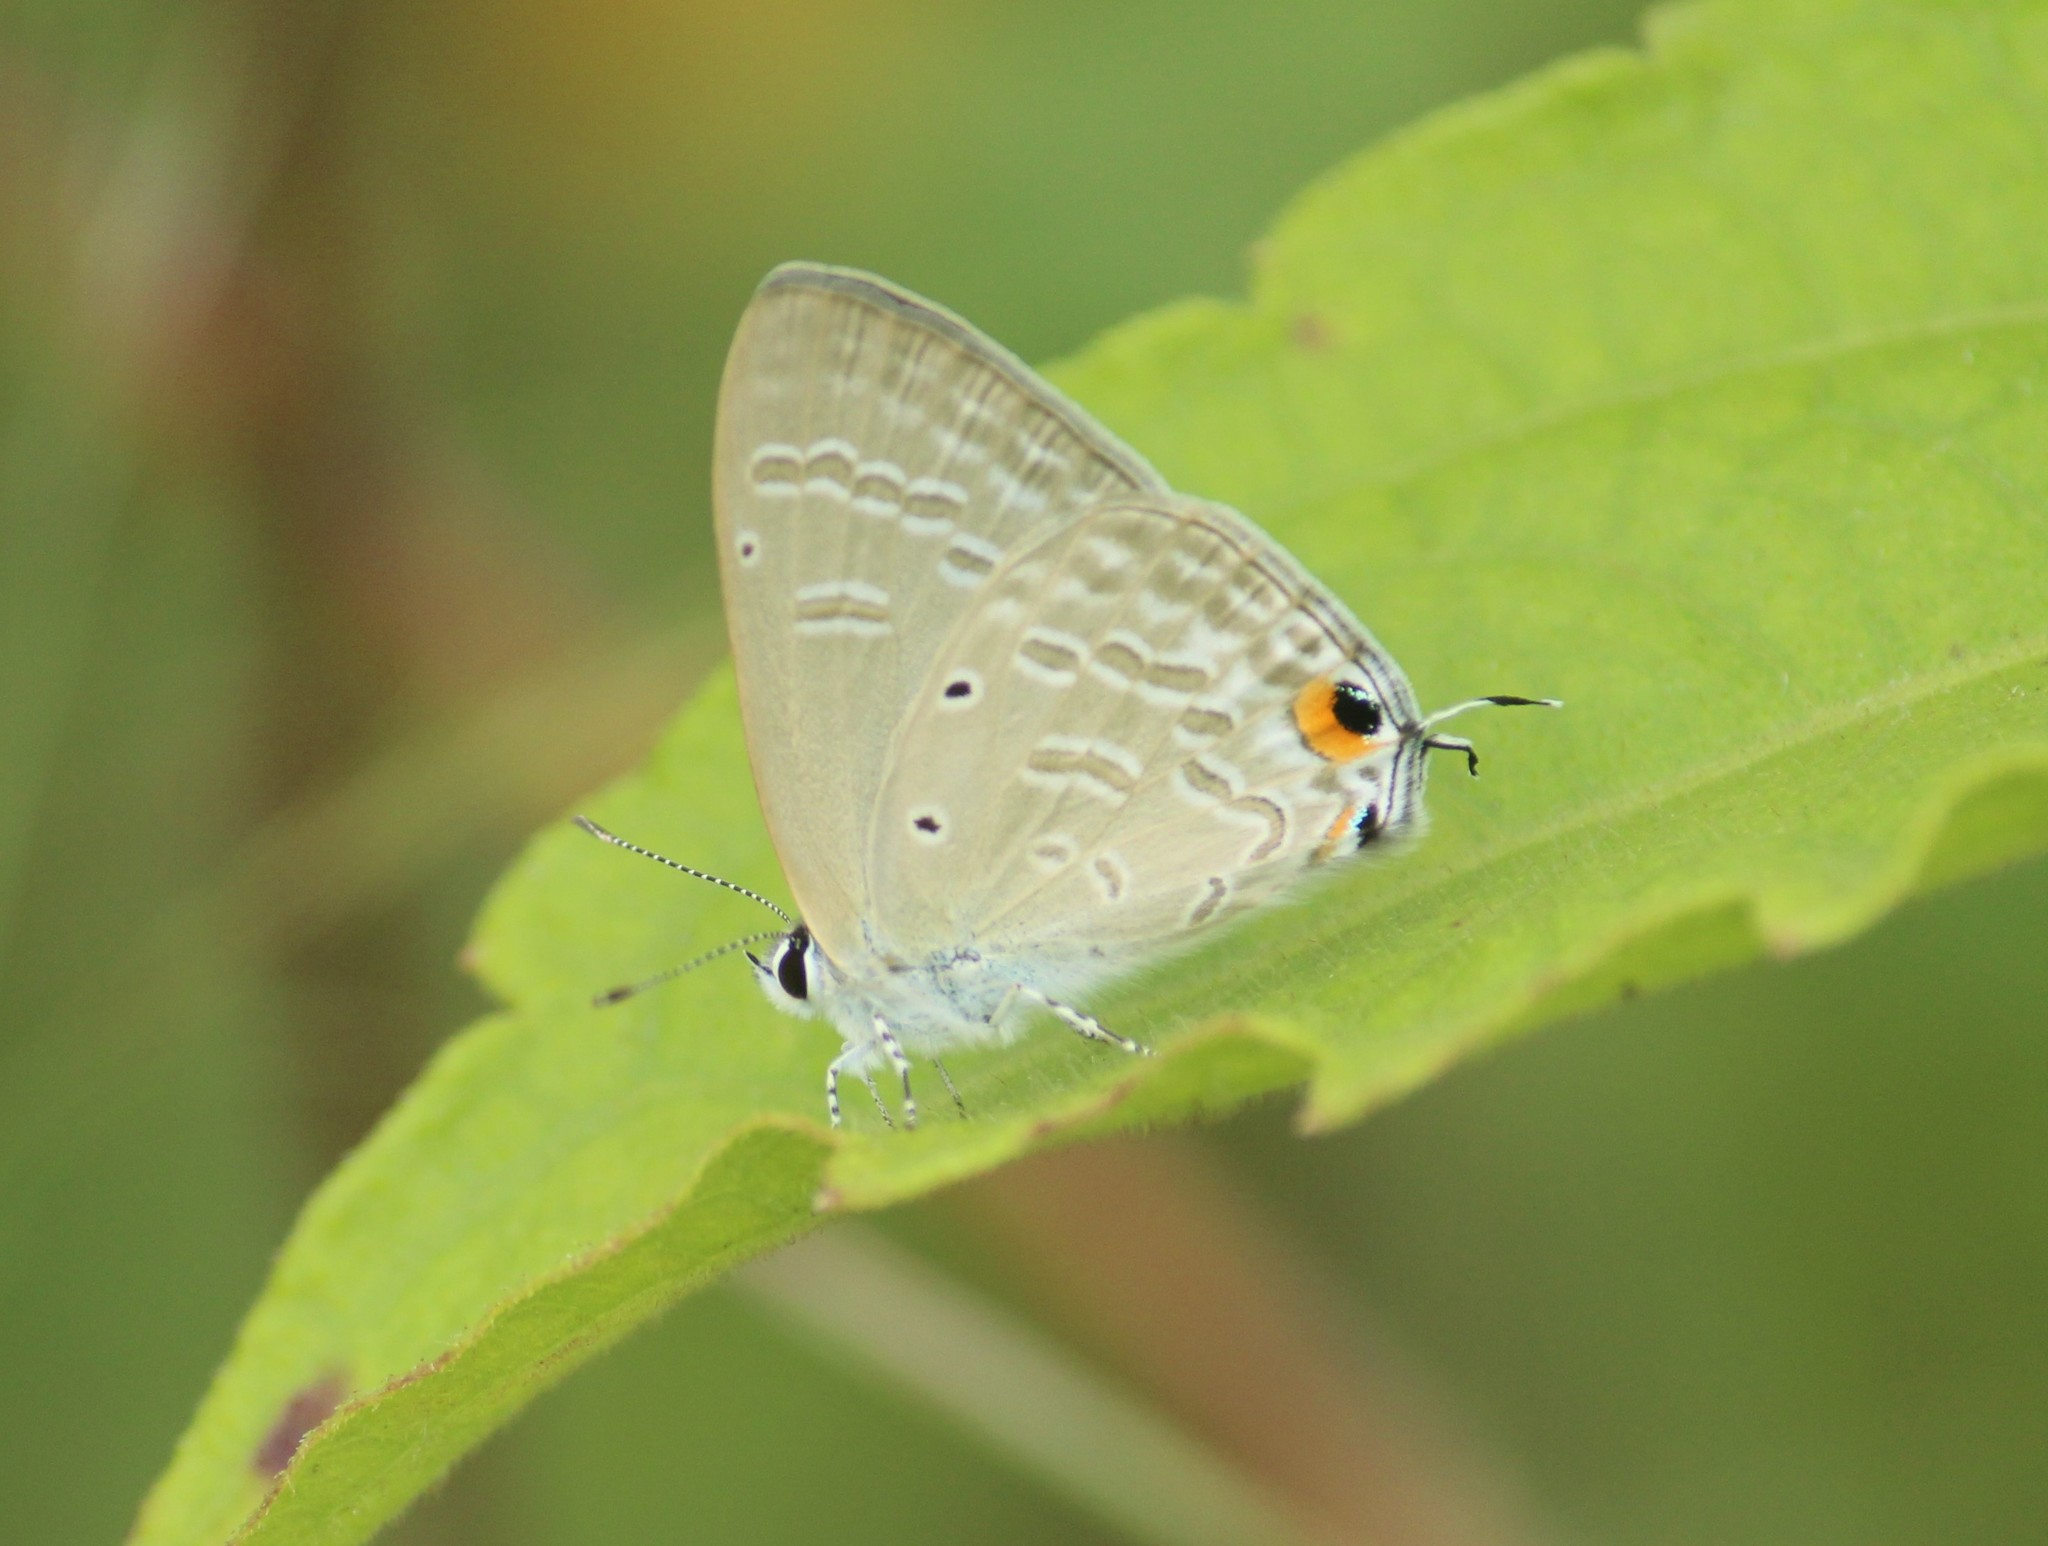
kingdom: Animalia
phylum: Arthropoda
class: Insecta
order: Lepidoptera
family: Lycaenidae
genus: Catochrysops
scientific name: Catochrysops strabo
